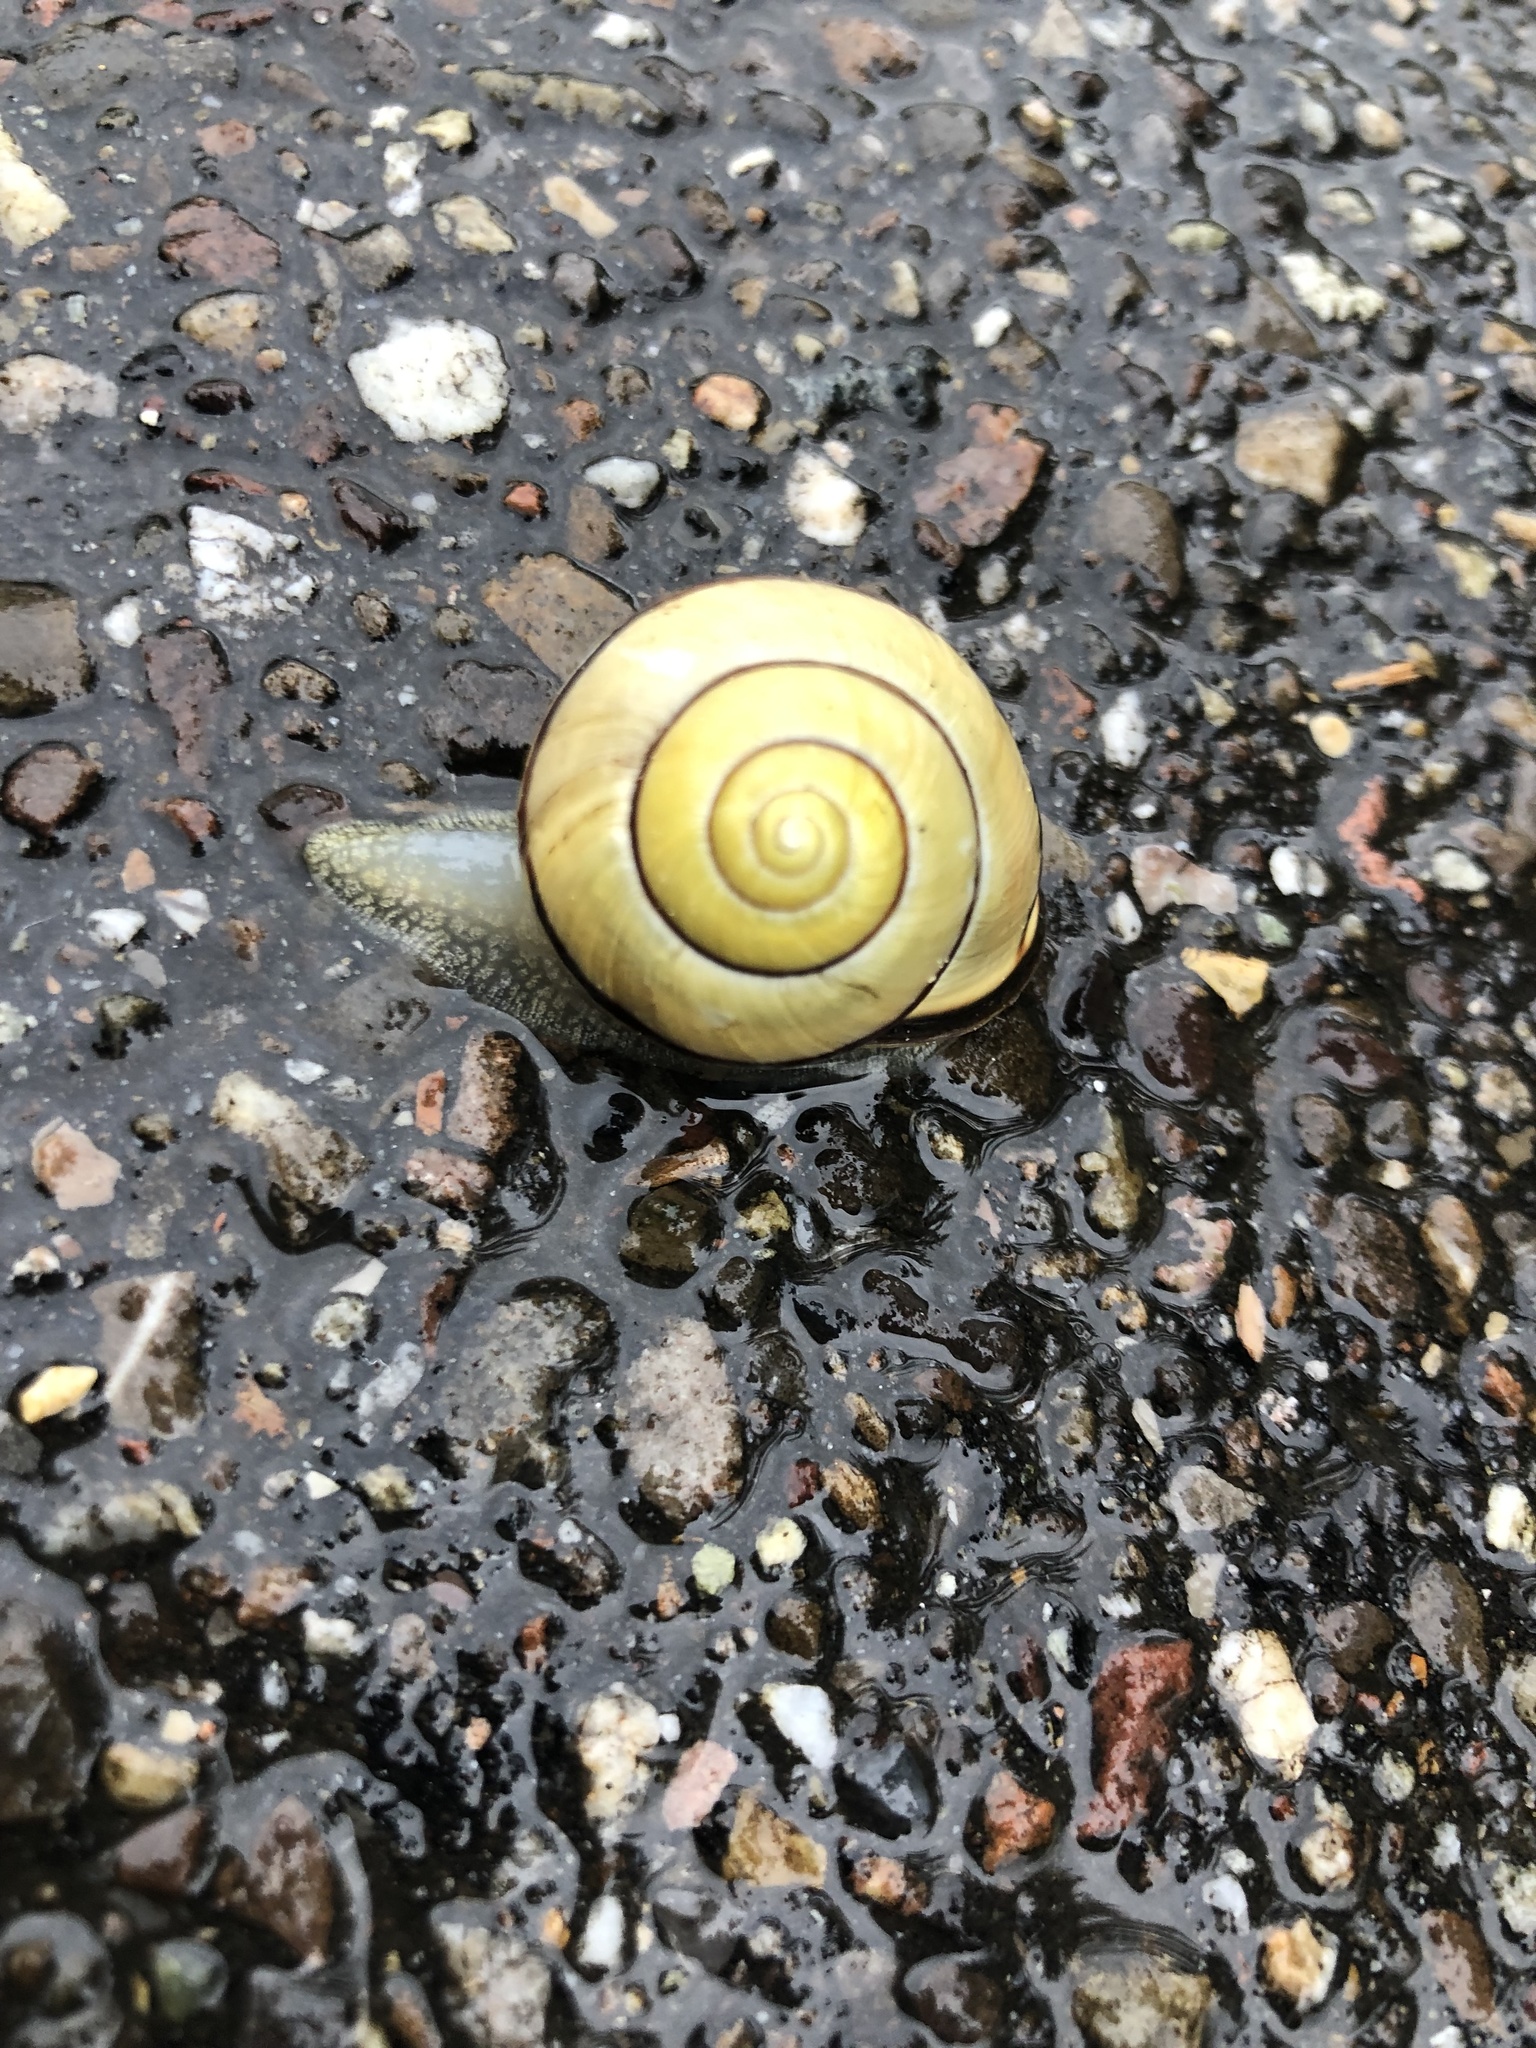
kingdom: Animalia
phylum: Mollusca
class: Gastropoda
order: Stylommatophora
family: Helicidae
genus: Cepaea
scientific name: Cepaea nemoralis
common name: Grovesnail
